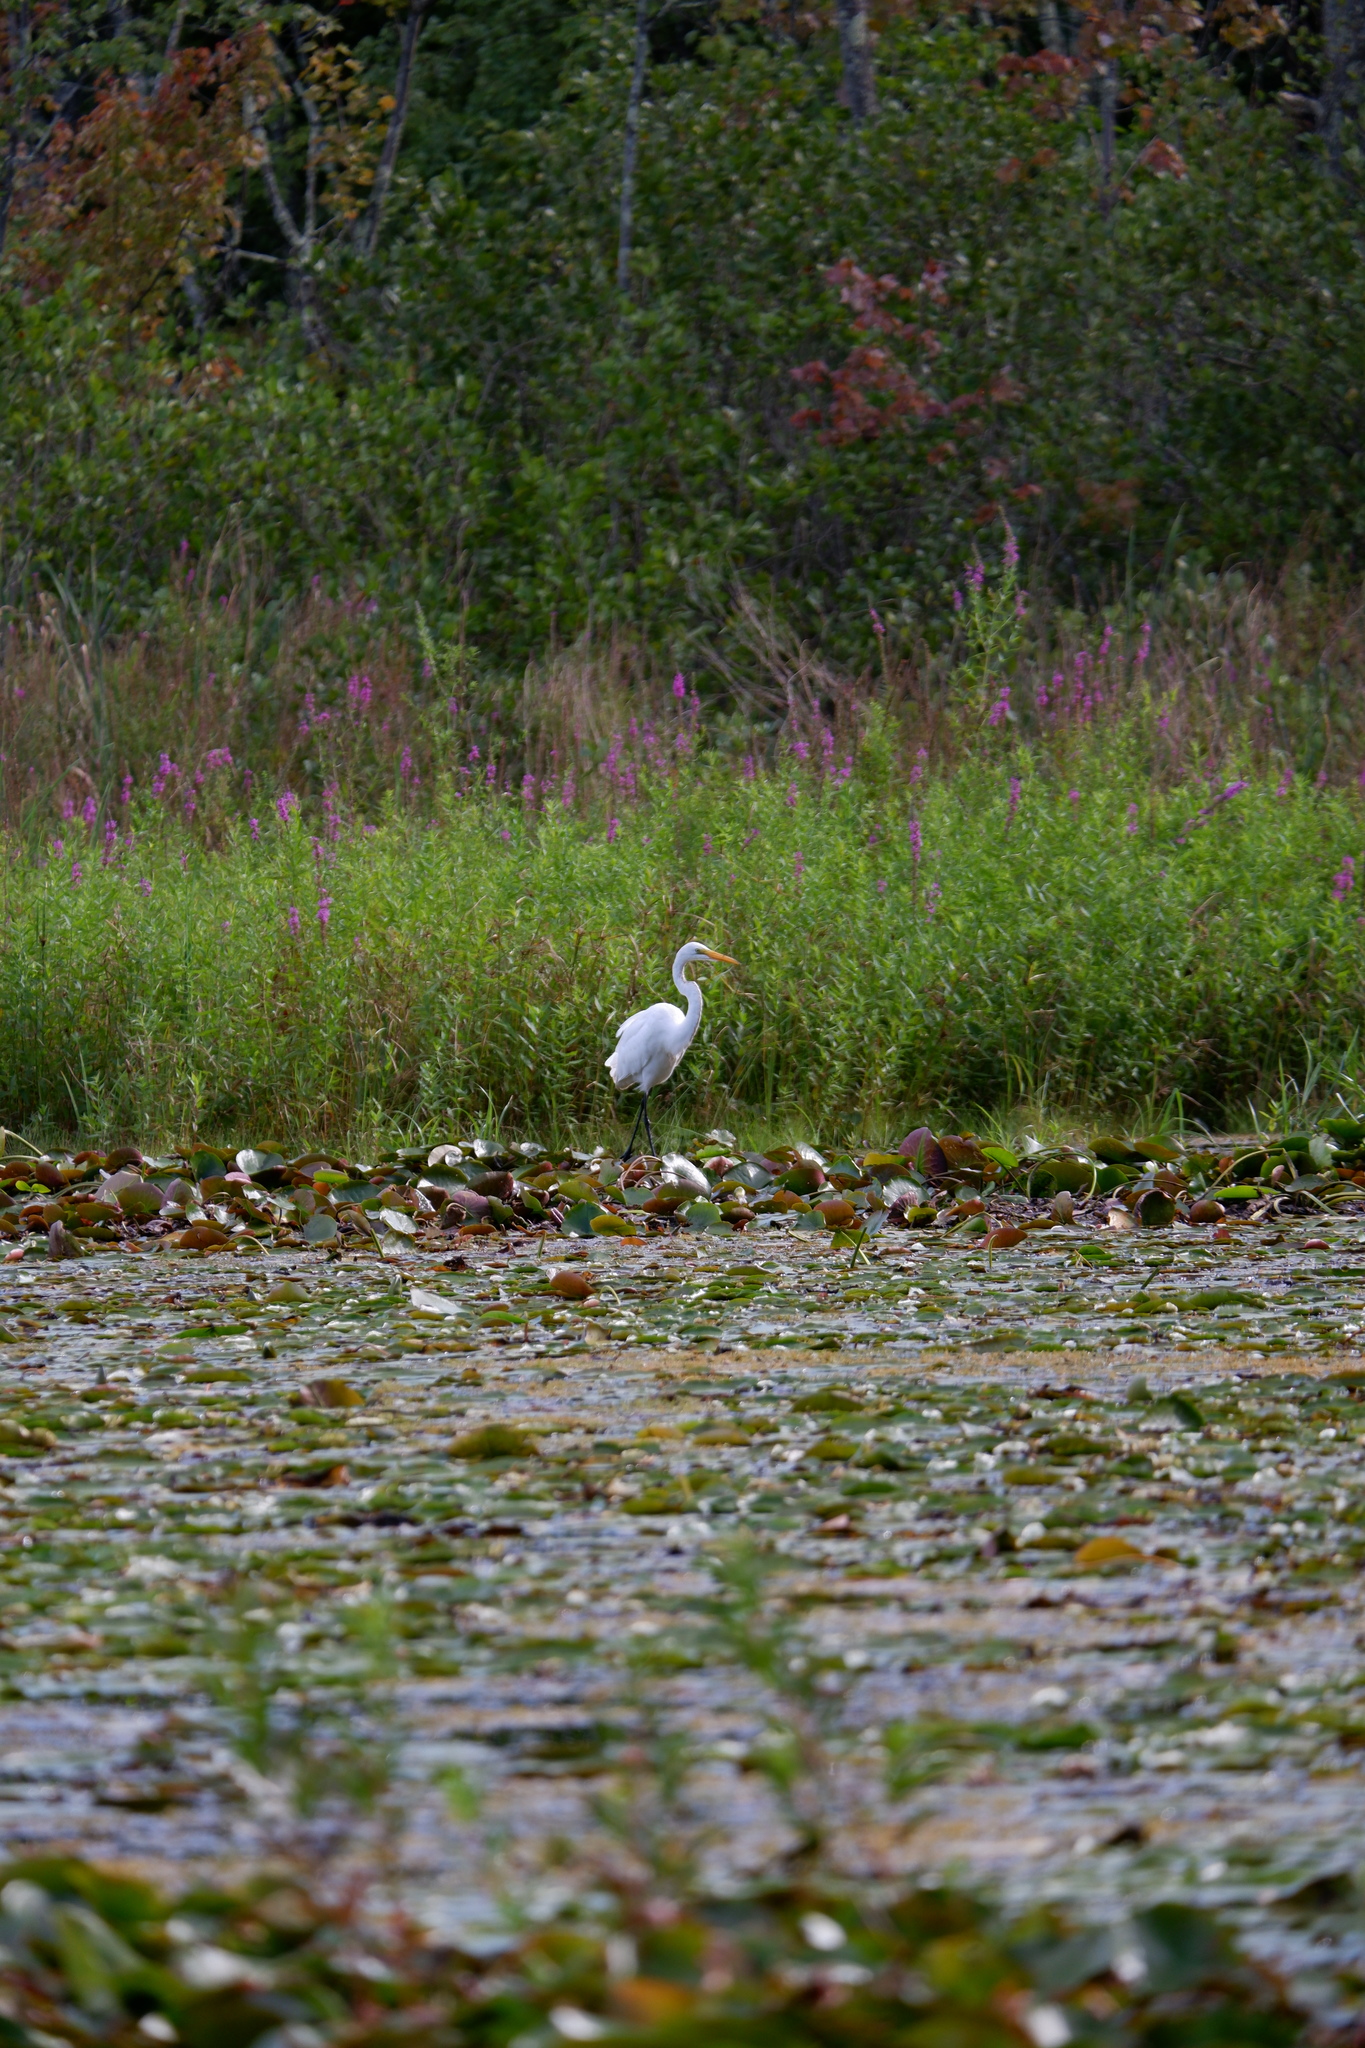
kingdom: Animalia
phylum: Chordata
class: Aves
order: Pelecaniformes
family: Ardeidae
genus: Ardea
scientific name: Ardea alba
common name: Great egret
